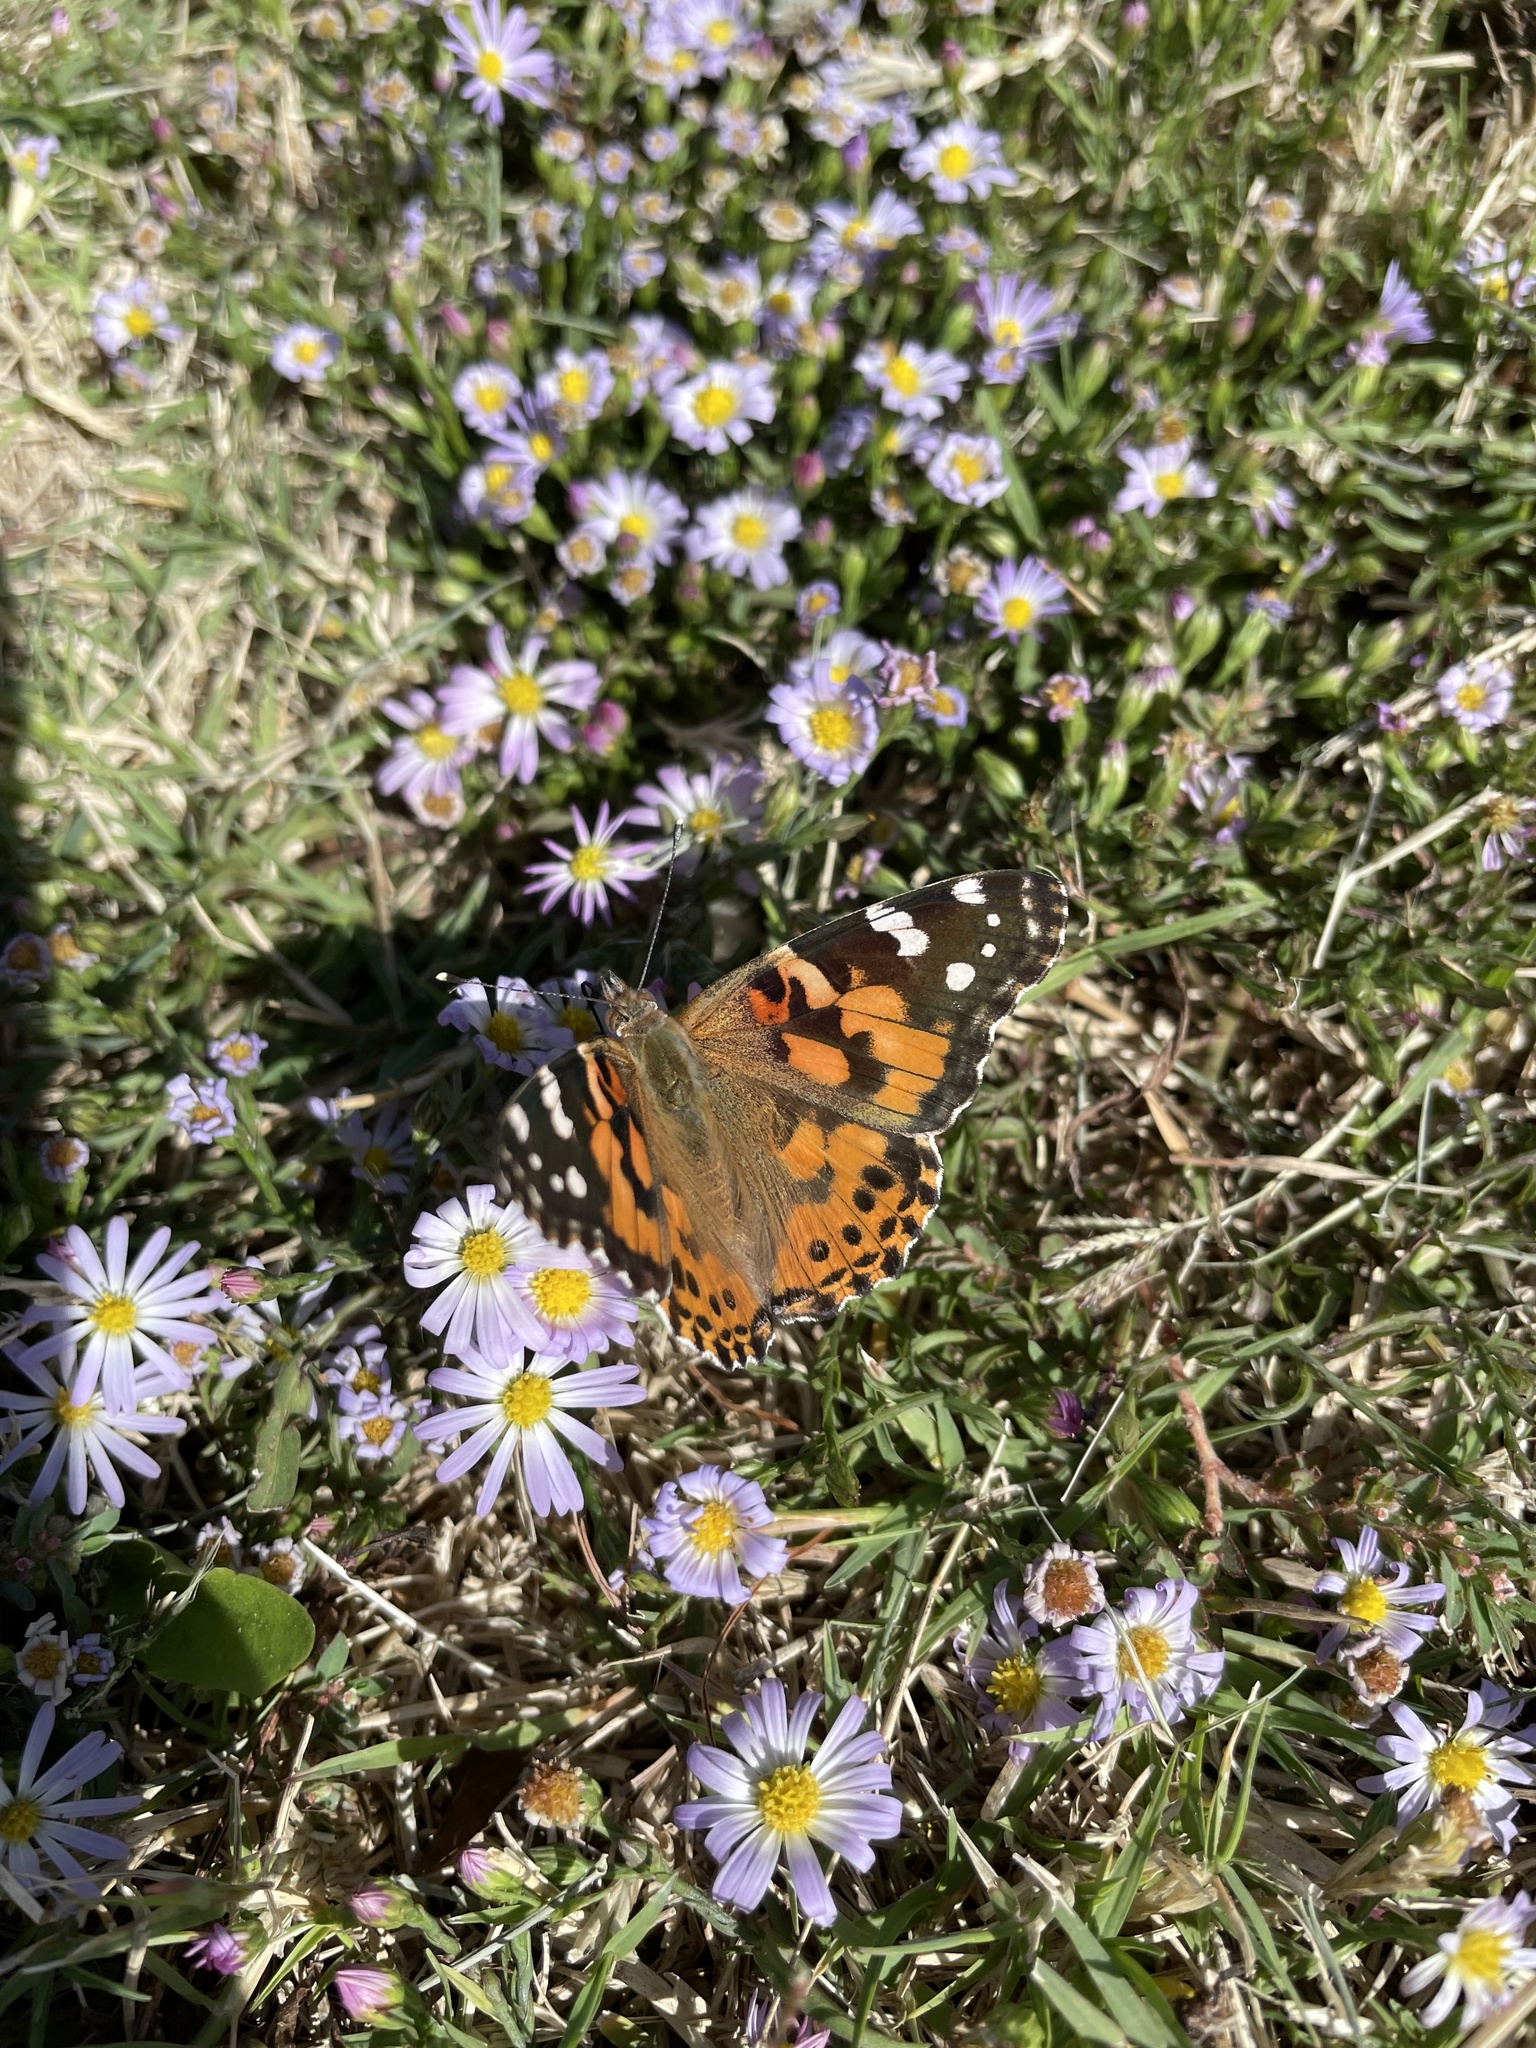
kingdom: Animalia
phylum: Arthropoda
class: Insecta
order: Lepidoptera
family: Nymphalidae
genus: Vanessa
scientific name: Vanessa cardui
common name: Painted lady
